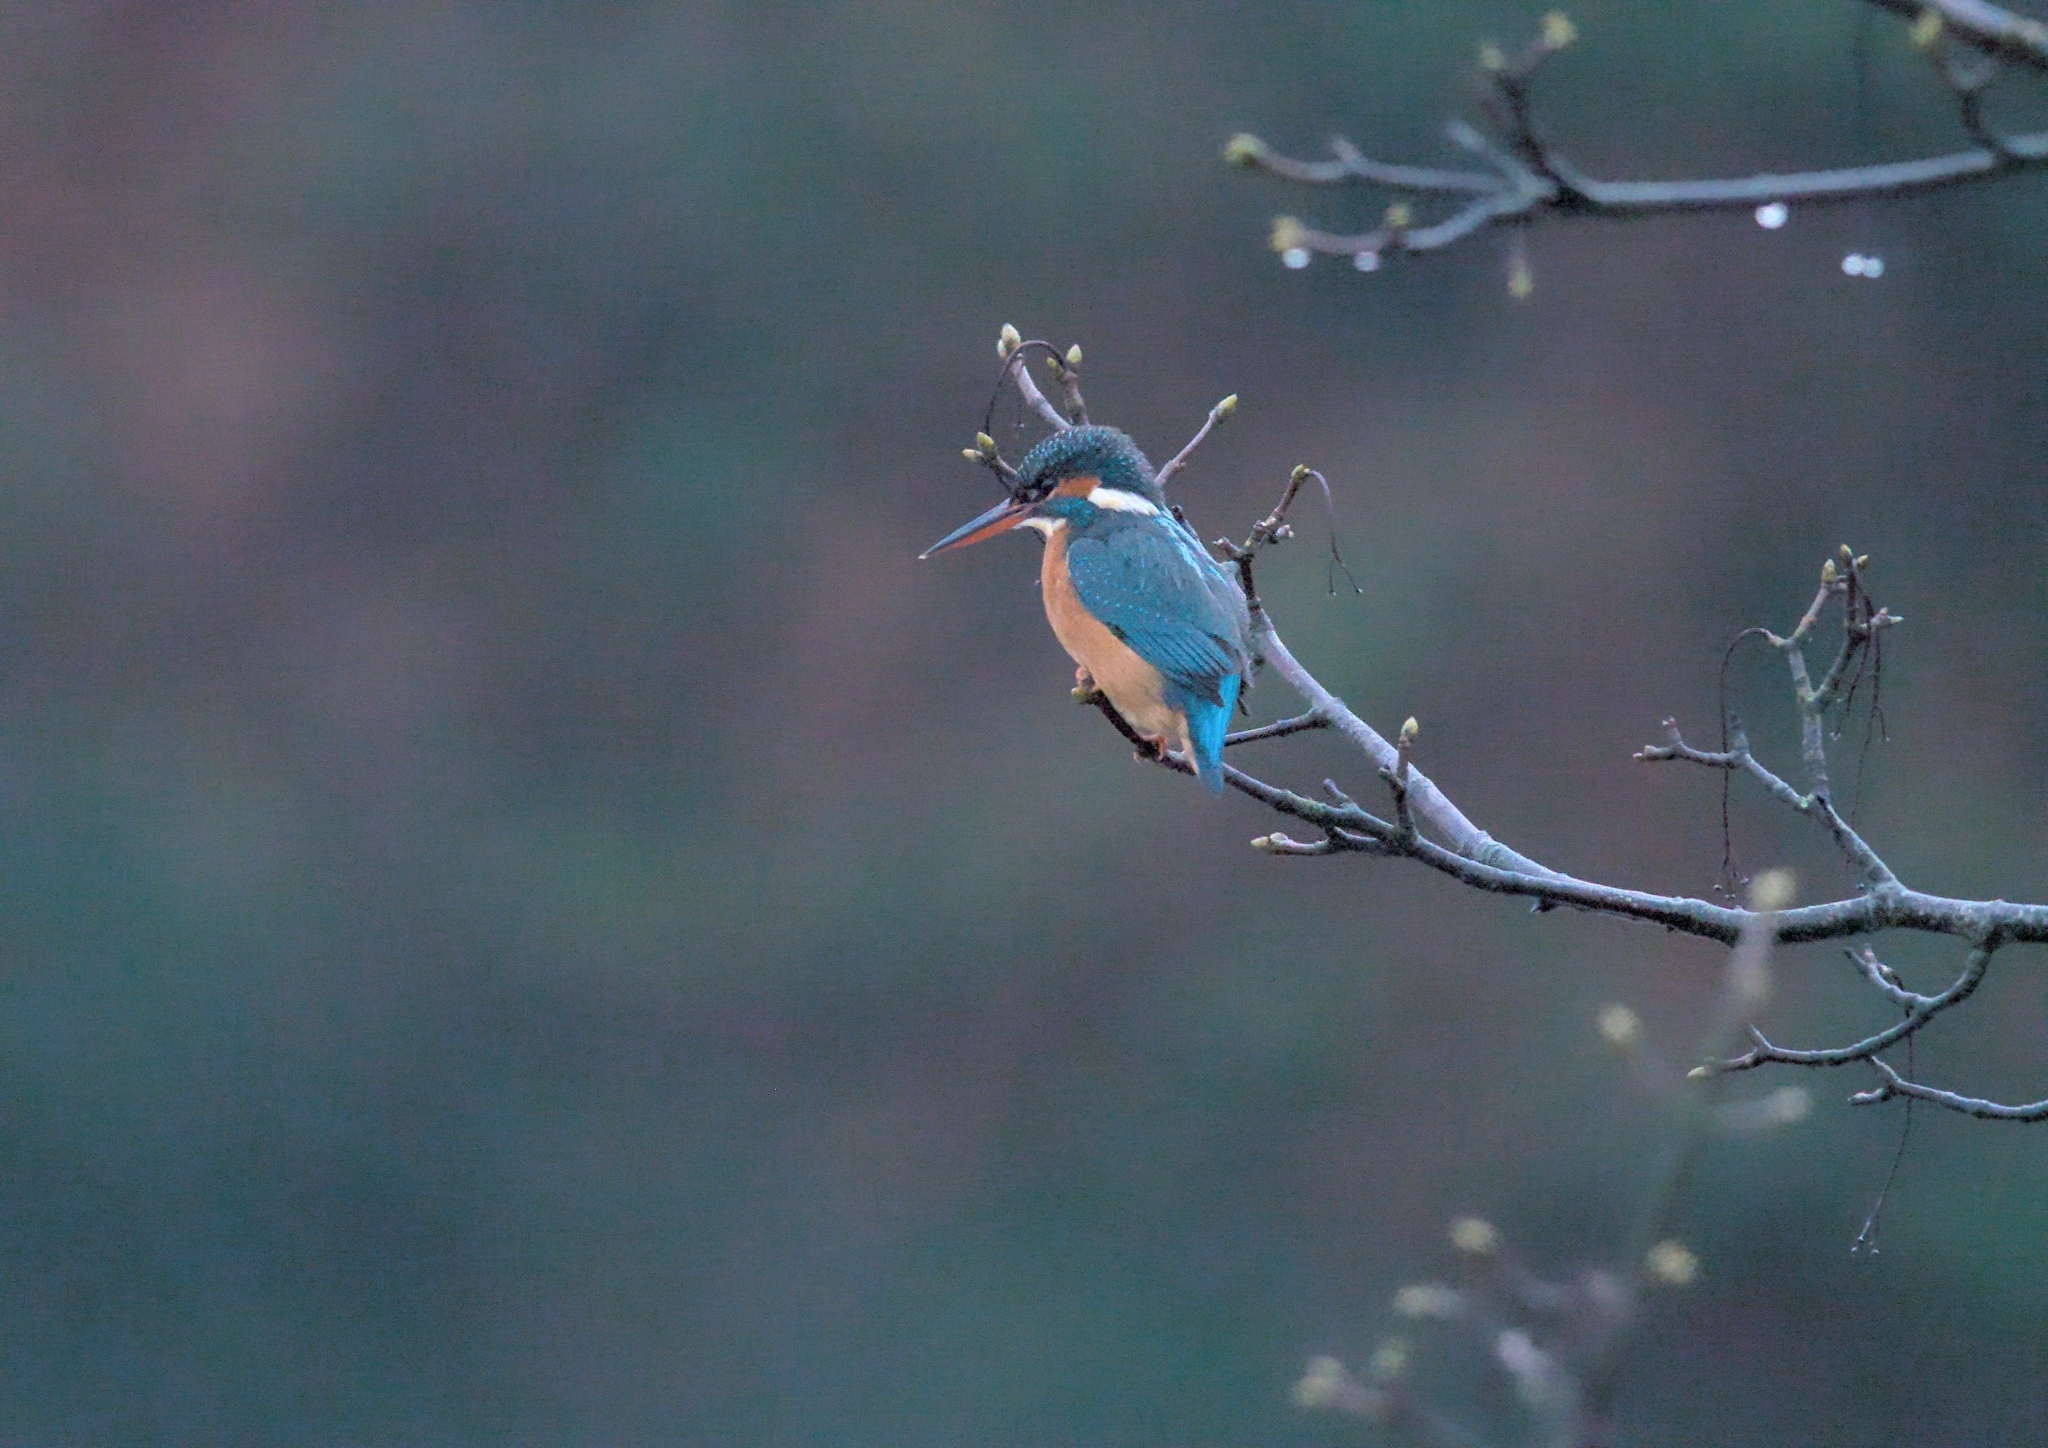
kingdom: Animalia
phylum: Chordata
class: Aves
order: Coraciiformes
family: Alcedinidae
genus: Alcedo
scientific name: Alcedo atthis
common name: Common kingfisher
